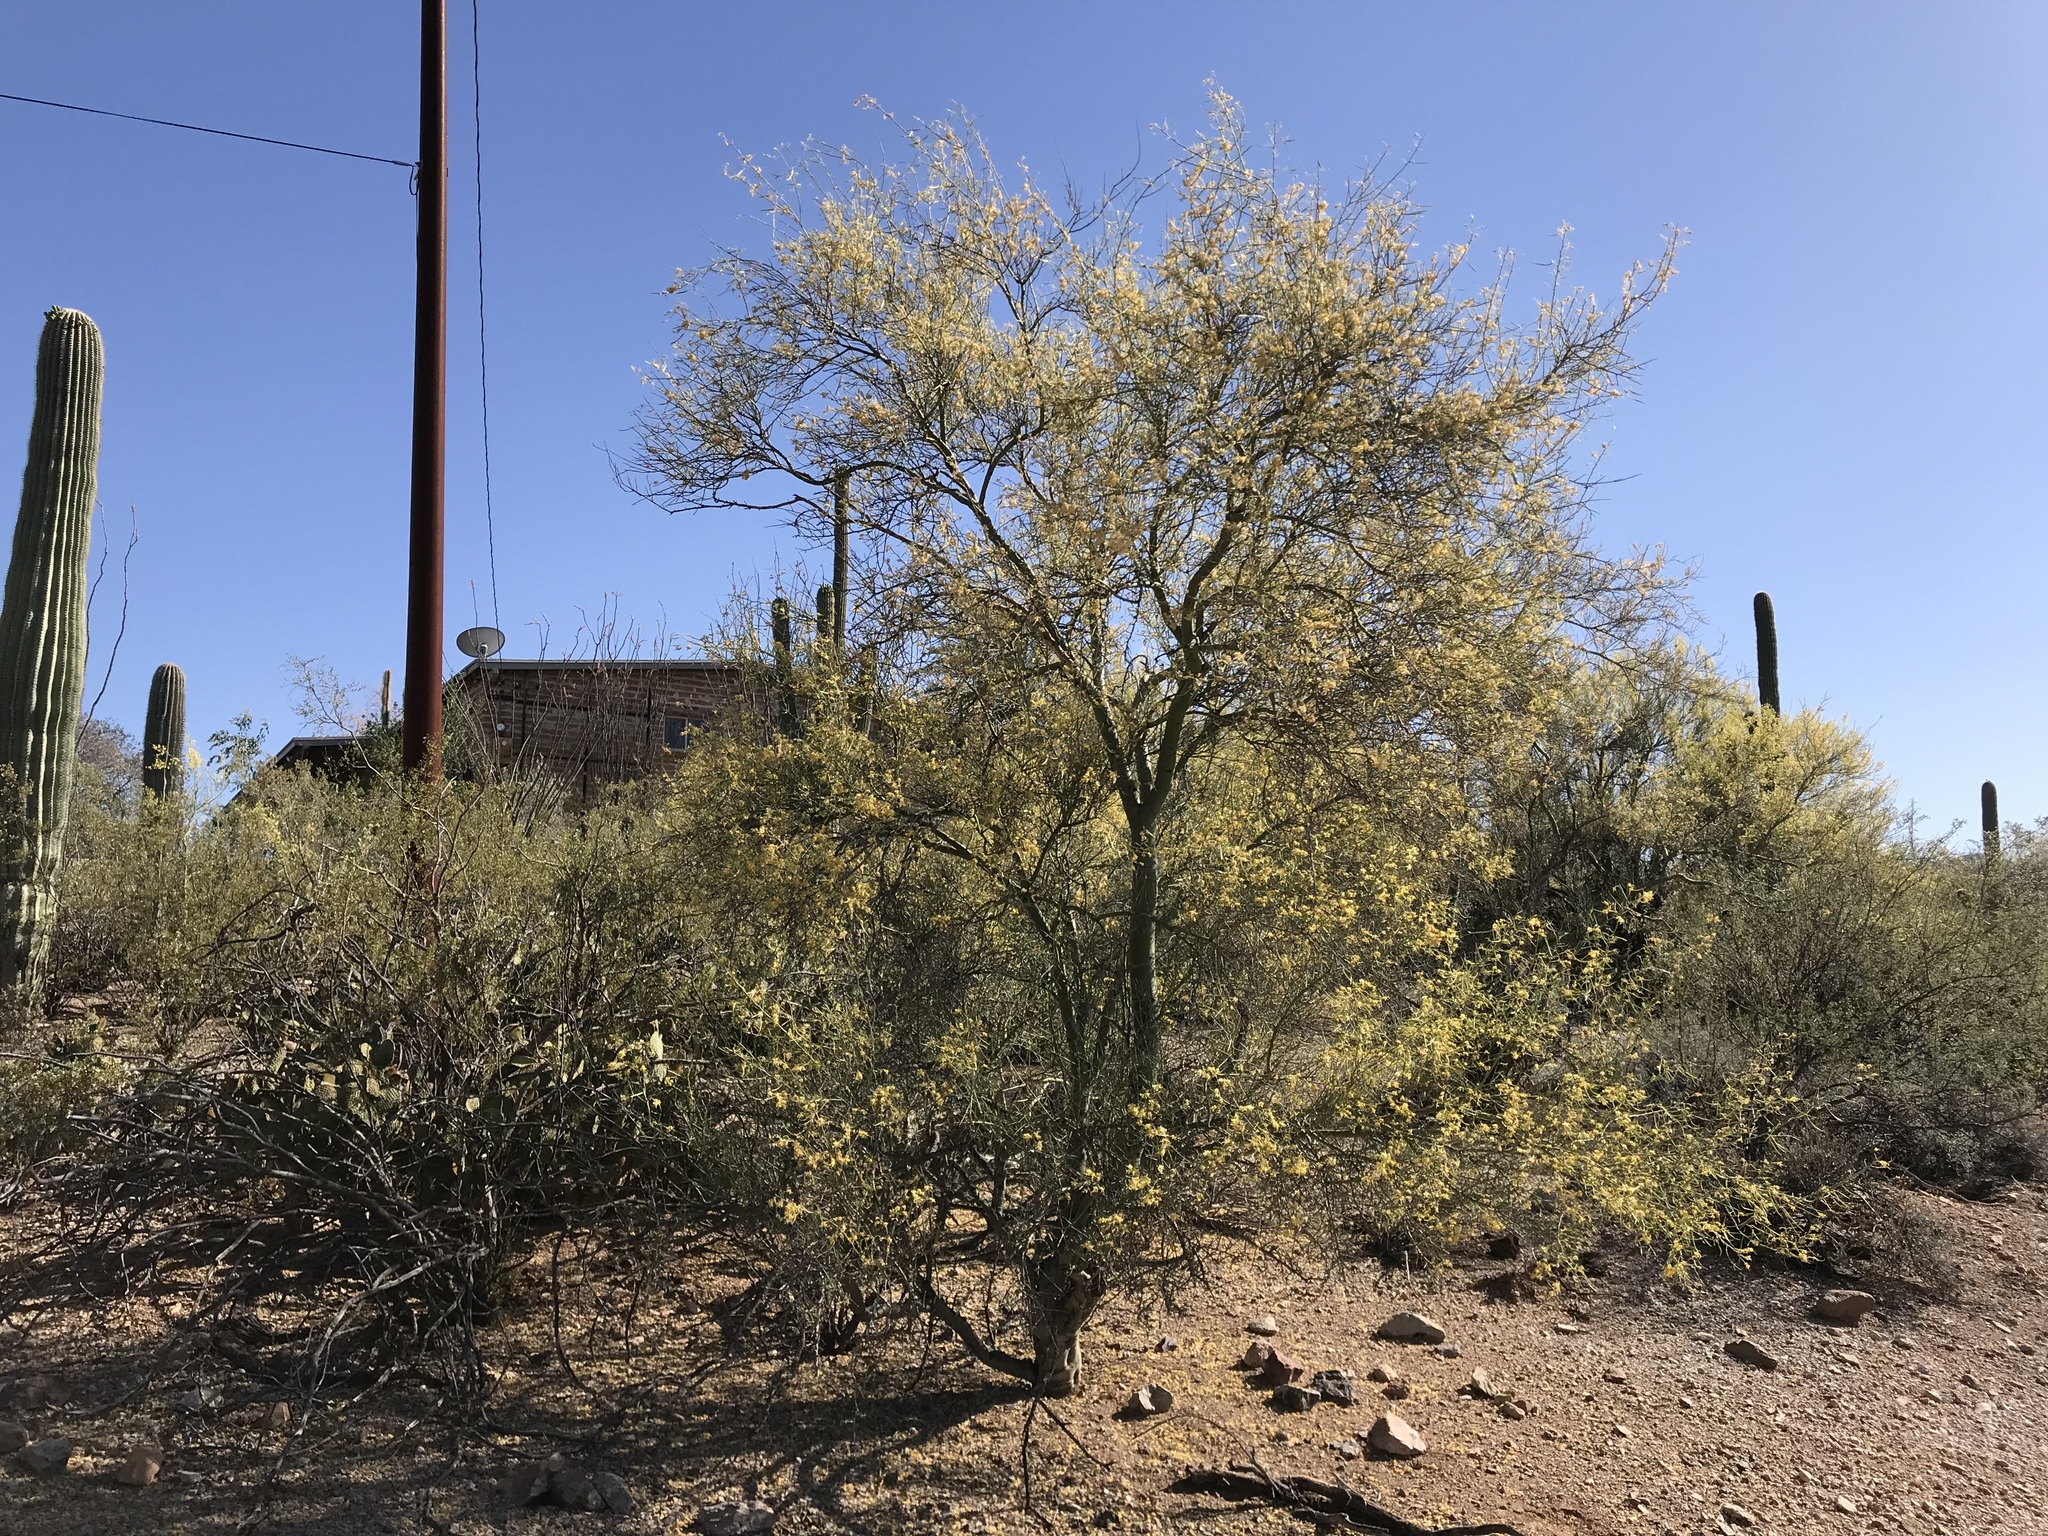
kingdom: Plantae
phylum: Tracheophyta
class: Magnoliopsida
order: Fabales
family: Fabaceae
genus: Parkinsonia
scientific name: Parkinsonia microphylla
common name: Yellow paloverde
